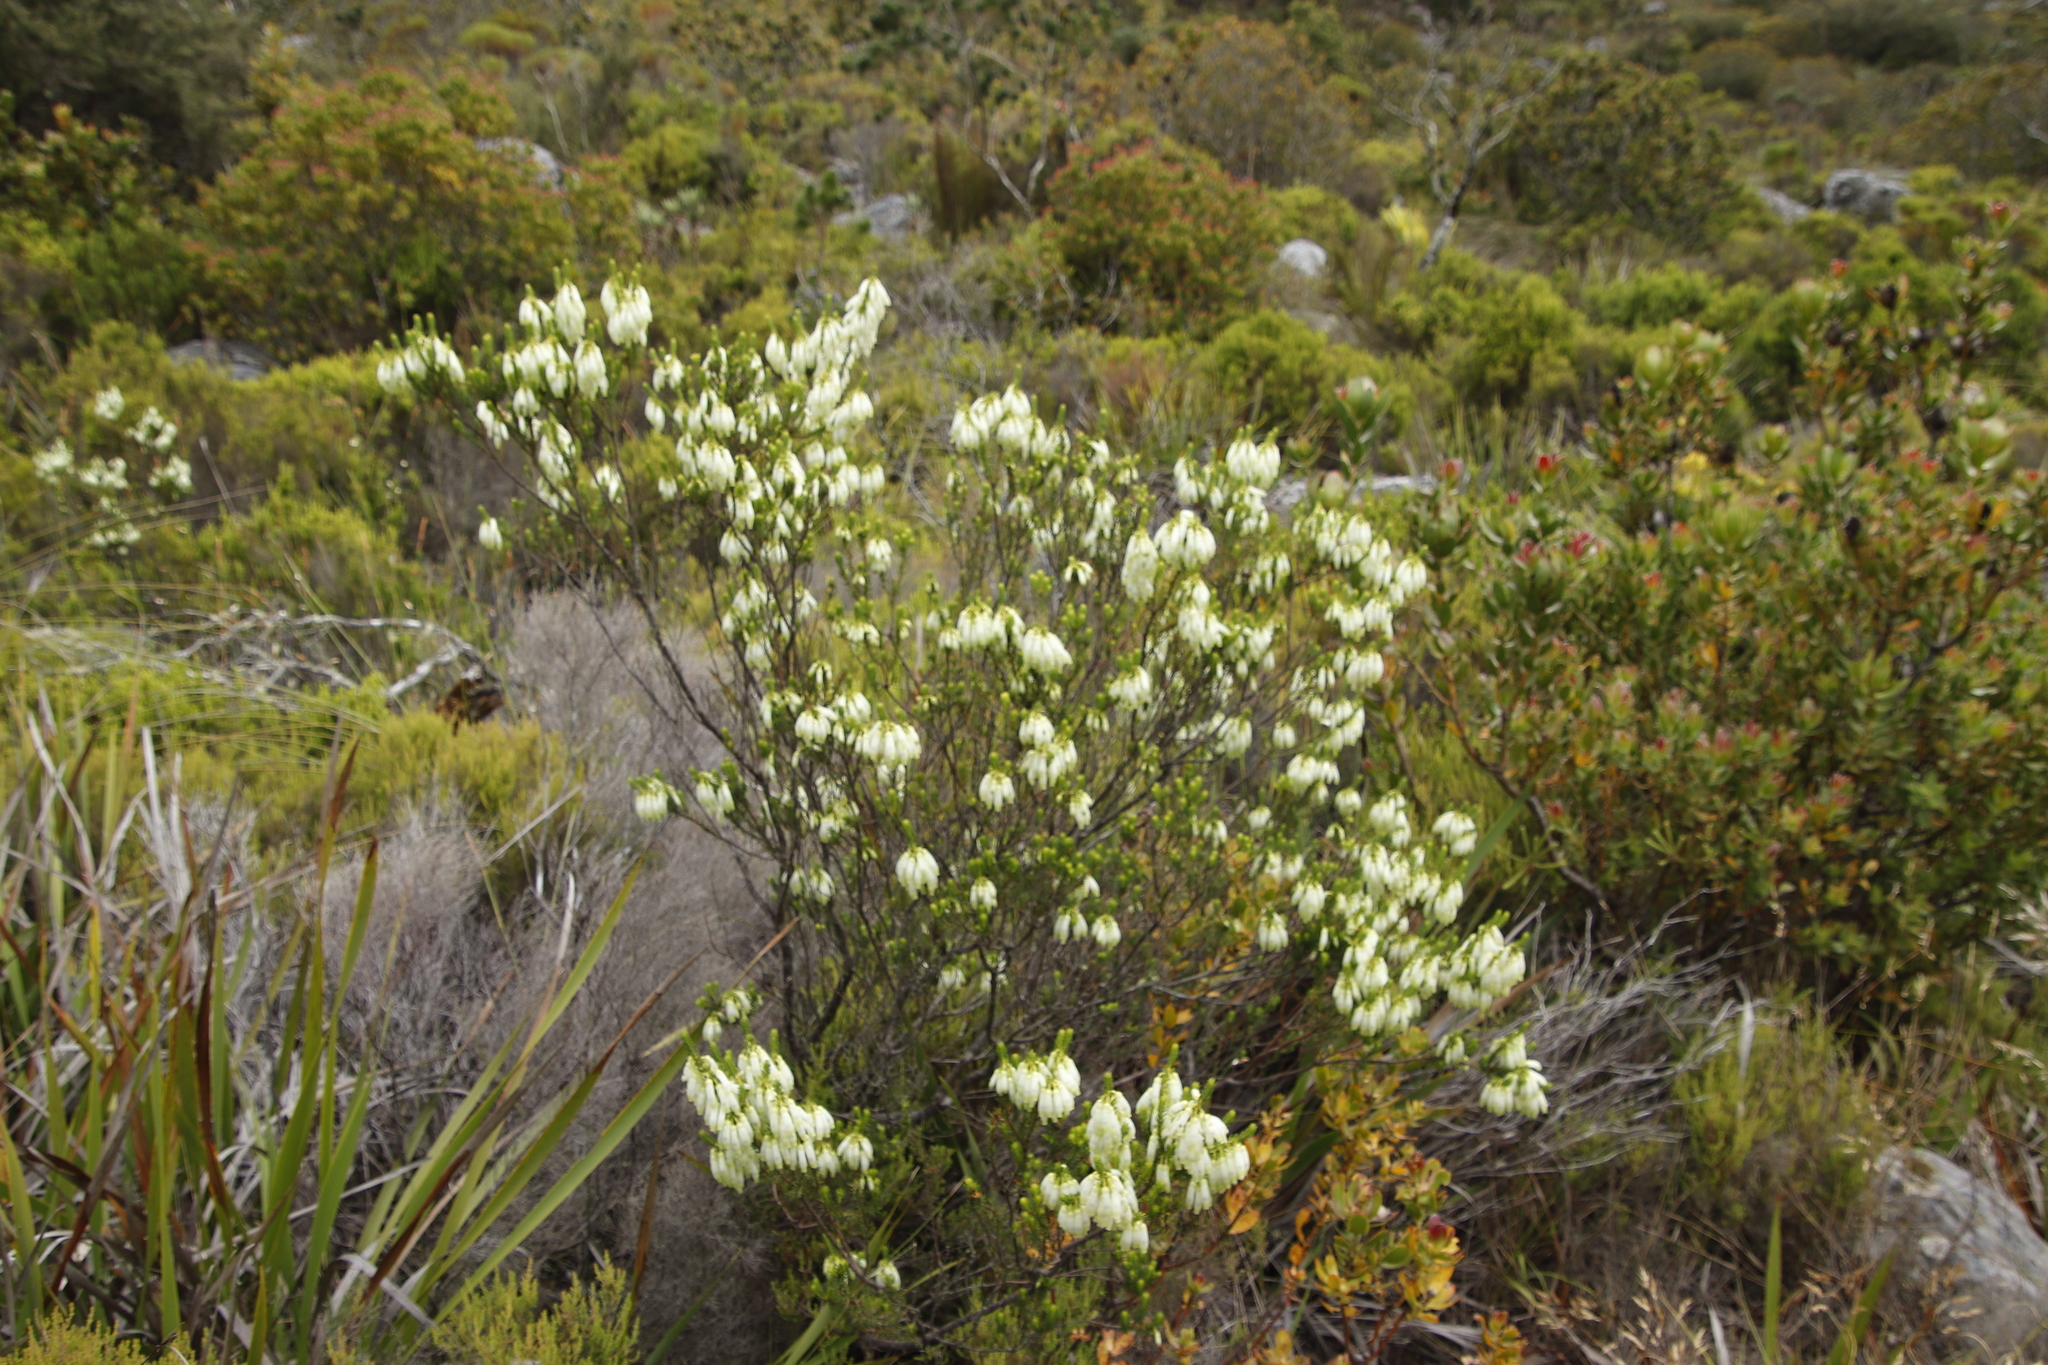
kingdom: Plantae
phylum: Tracheophyta
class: Magnoliopsida
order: Ericales
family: Ericaceae
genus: Erica
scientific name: Erica mammosa
